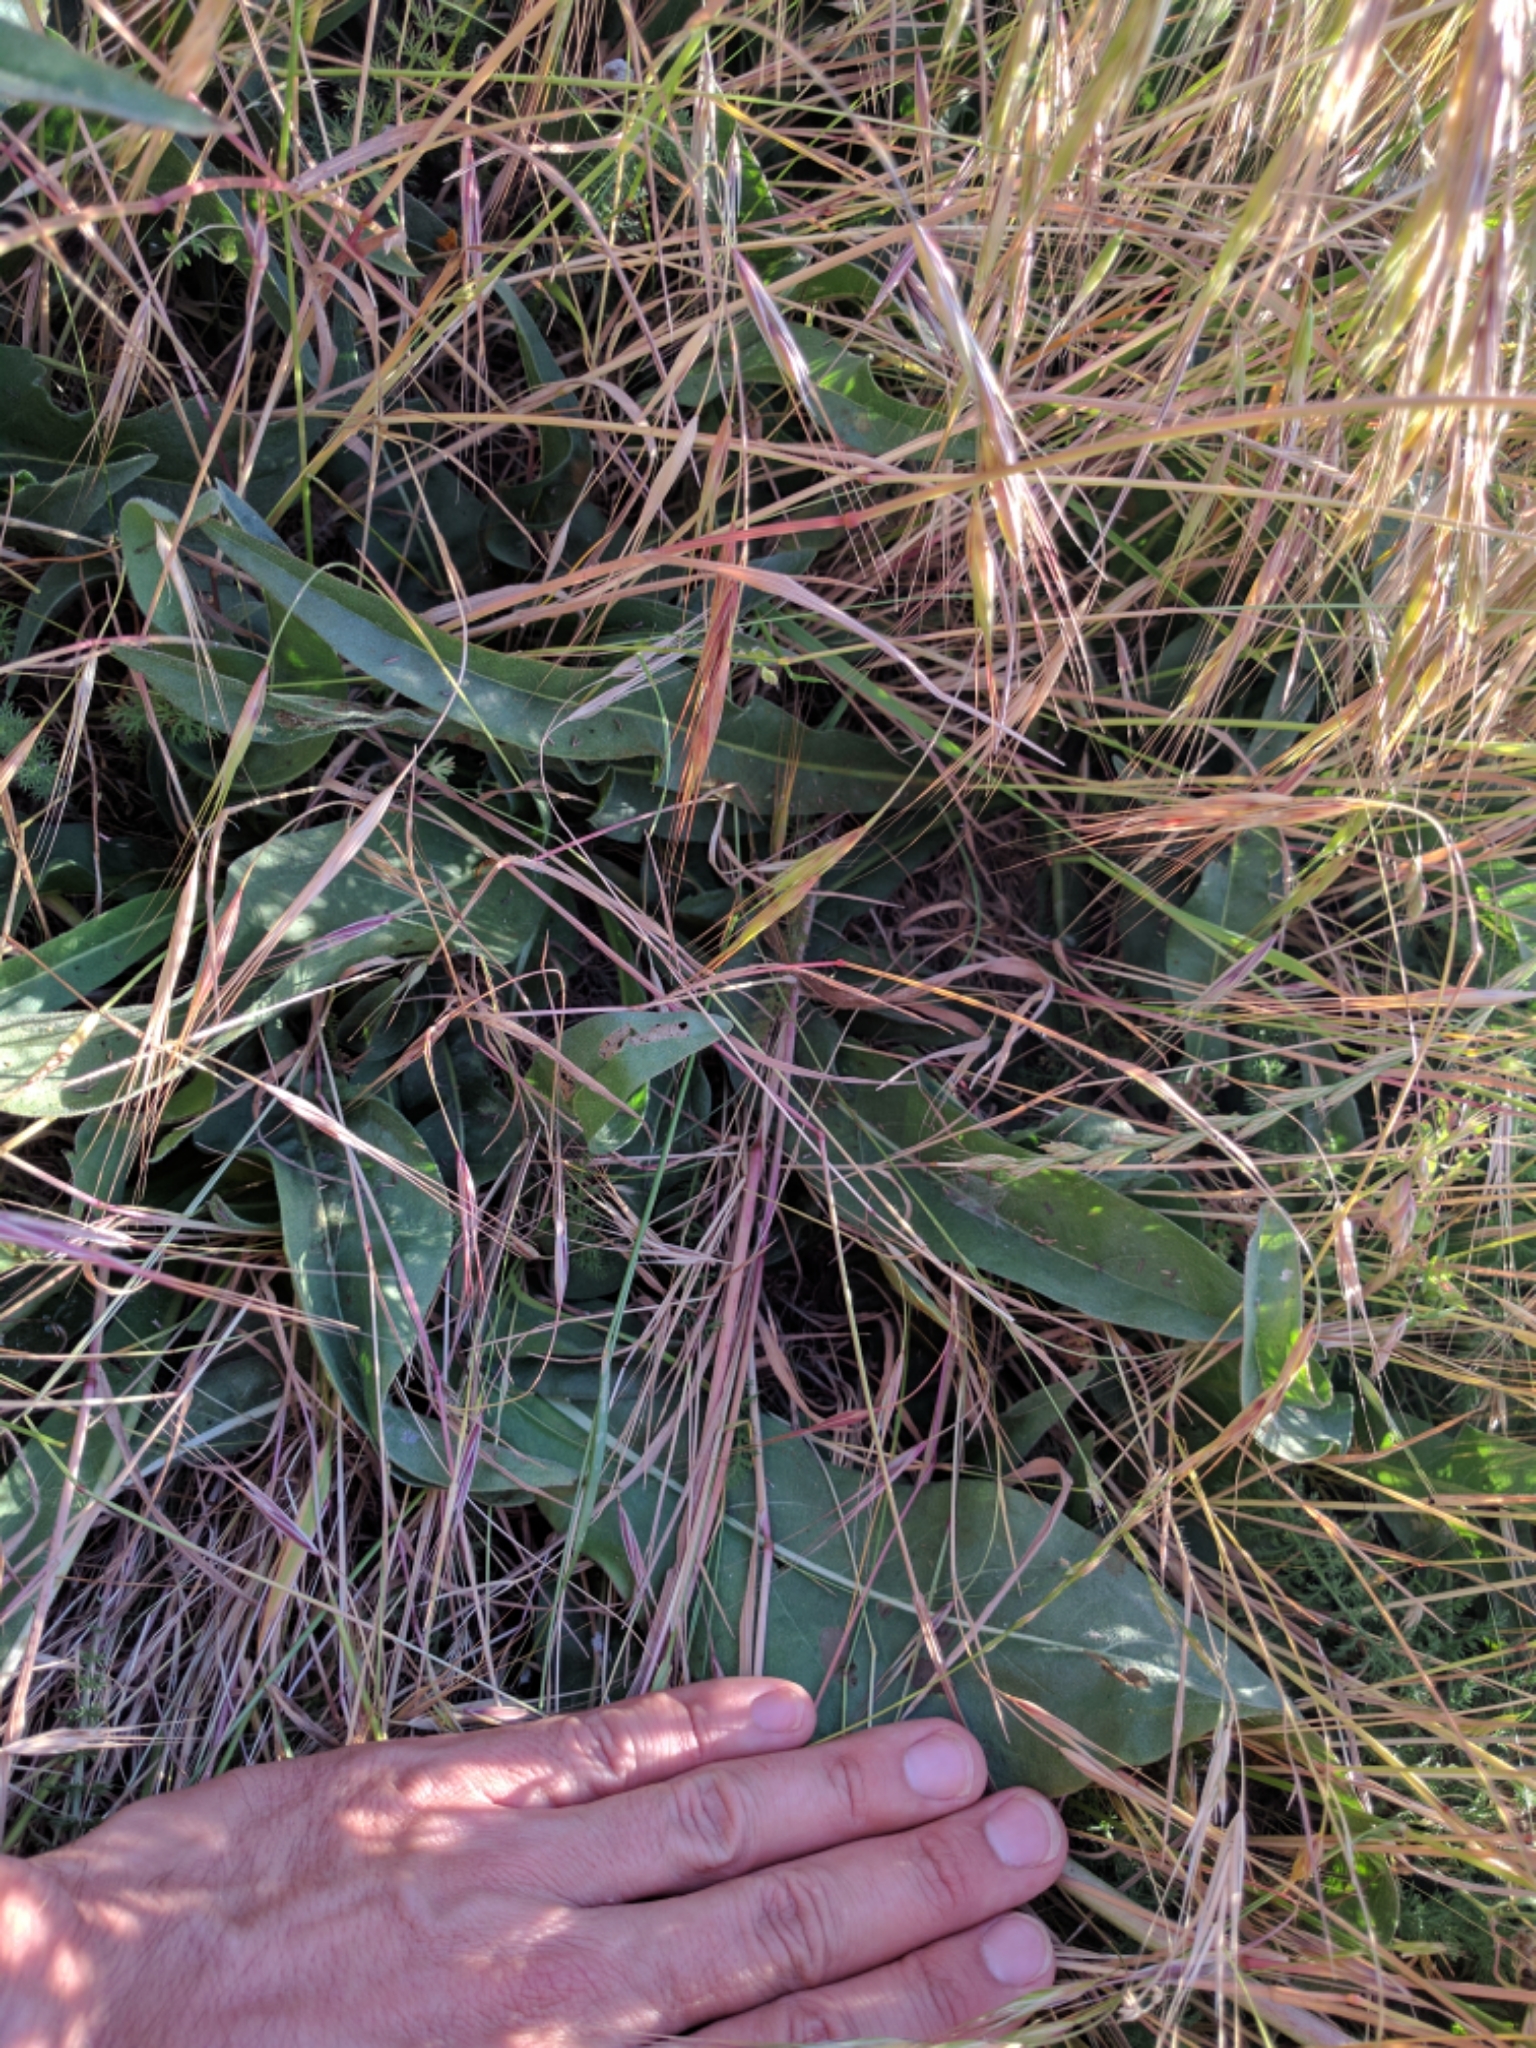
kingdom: Plantae
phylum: Tracheophyta
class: Magnoliopsida
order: Asterales
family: Asteraceae
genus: Wyethia
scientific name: Wyethia angustifolia
